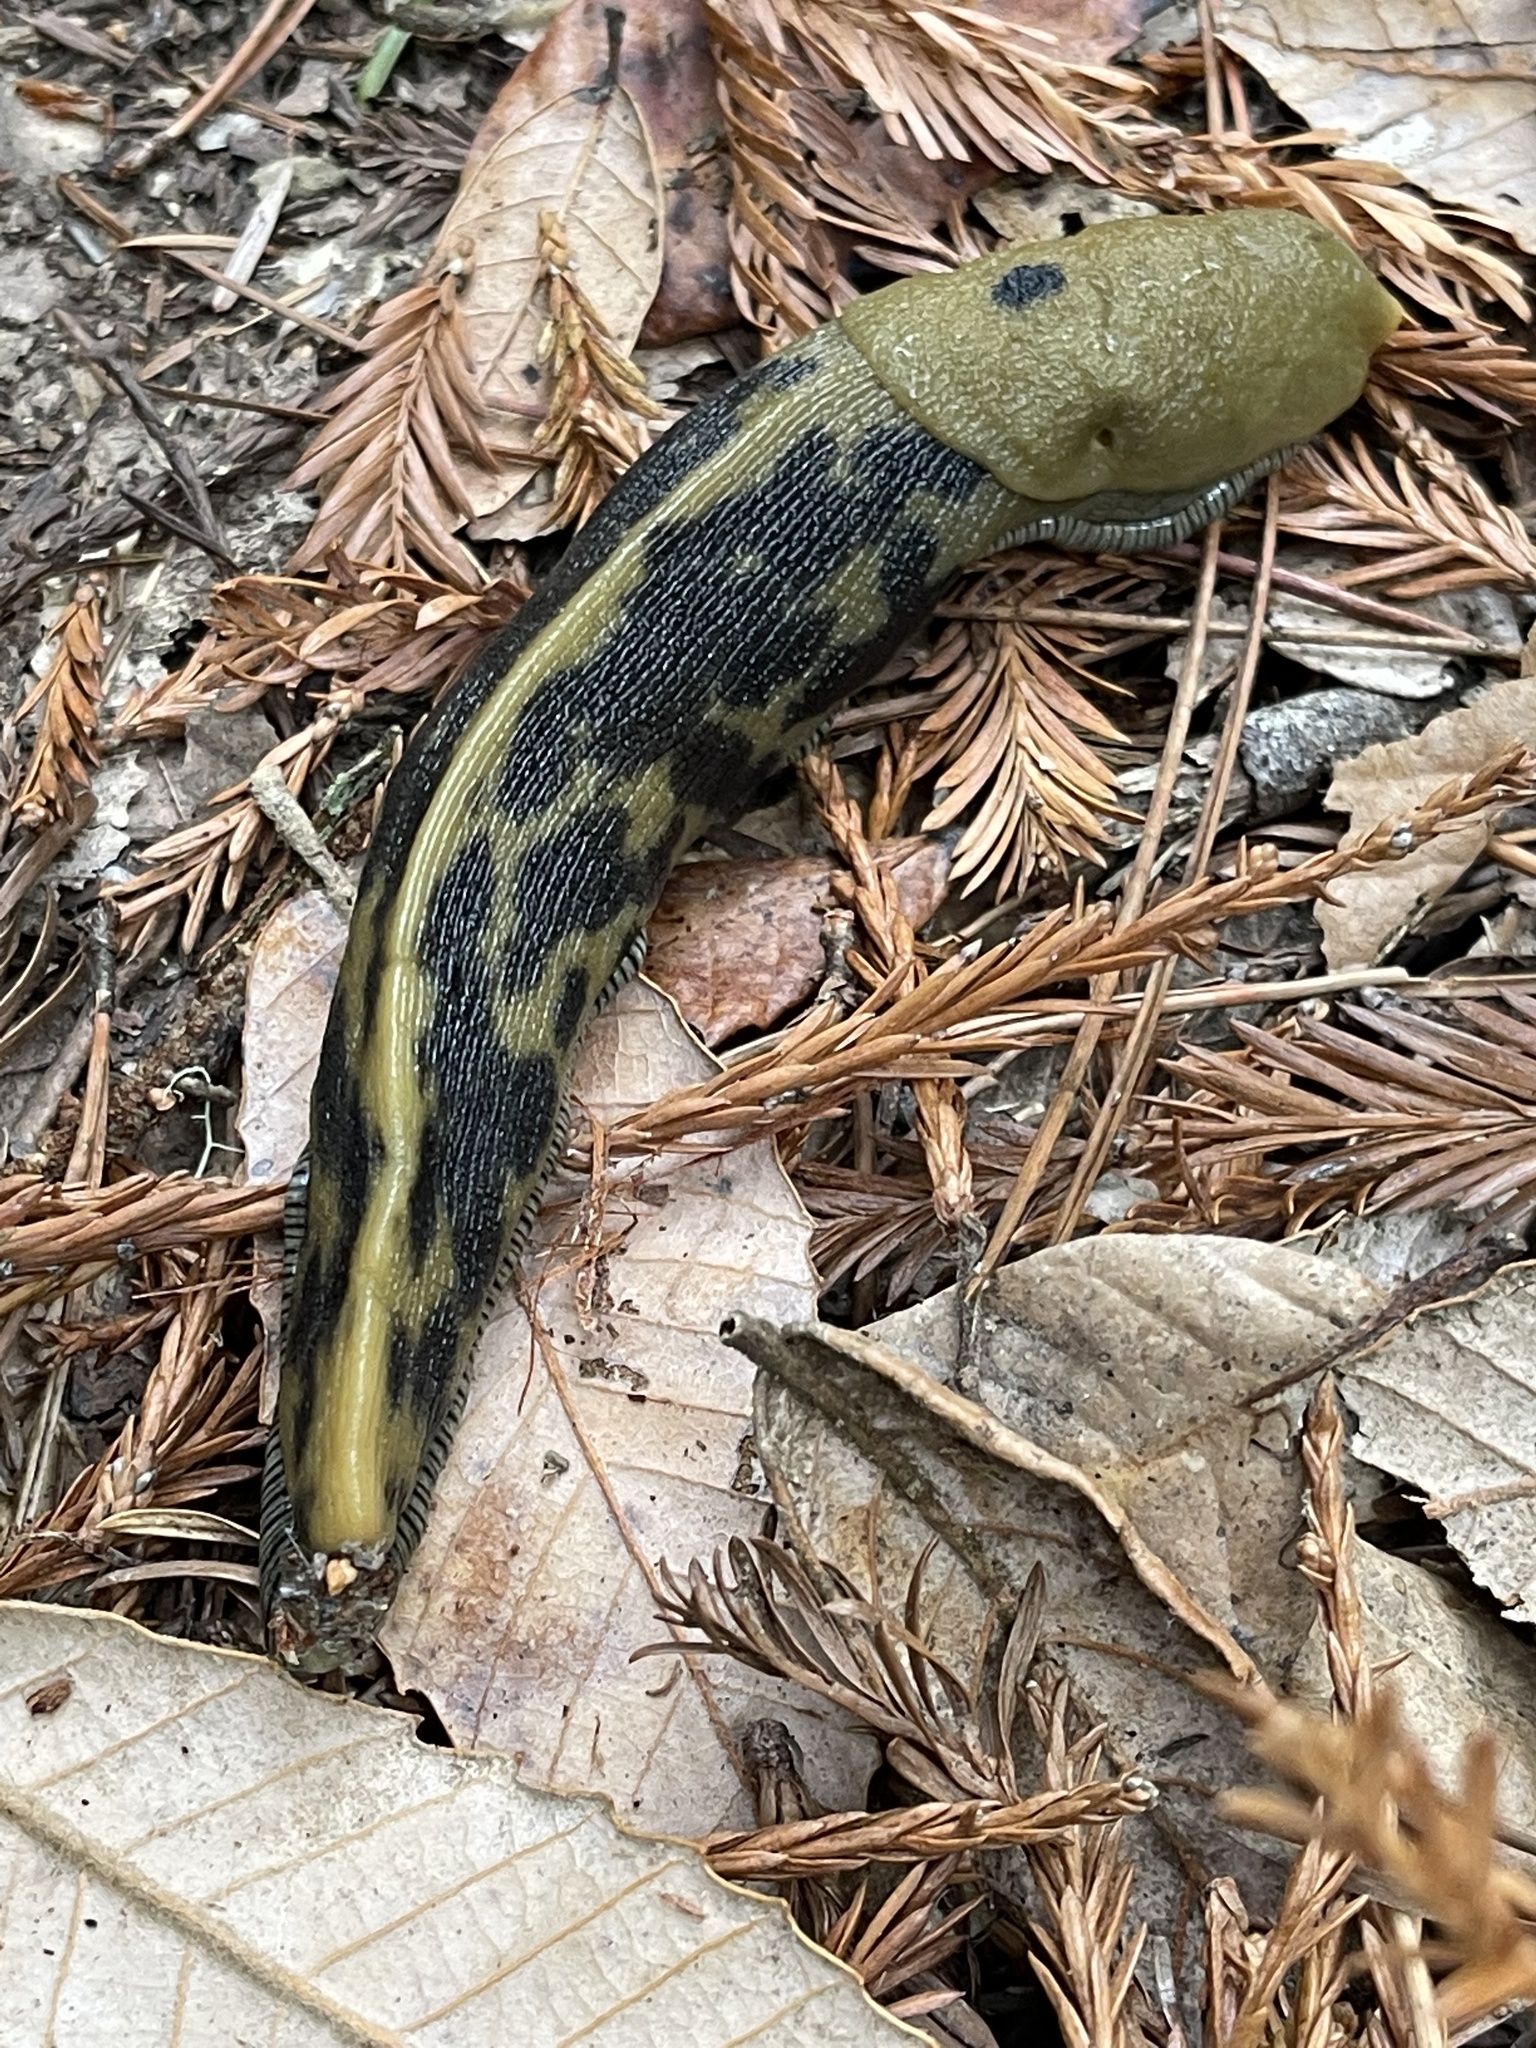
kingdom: Animalia
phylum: Mollusca
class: Gastropoda
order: Stylommatophora
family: Ariolimacidae
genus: Ariolimax
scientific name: Ariolimax buttoni
